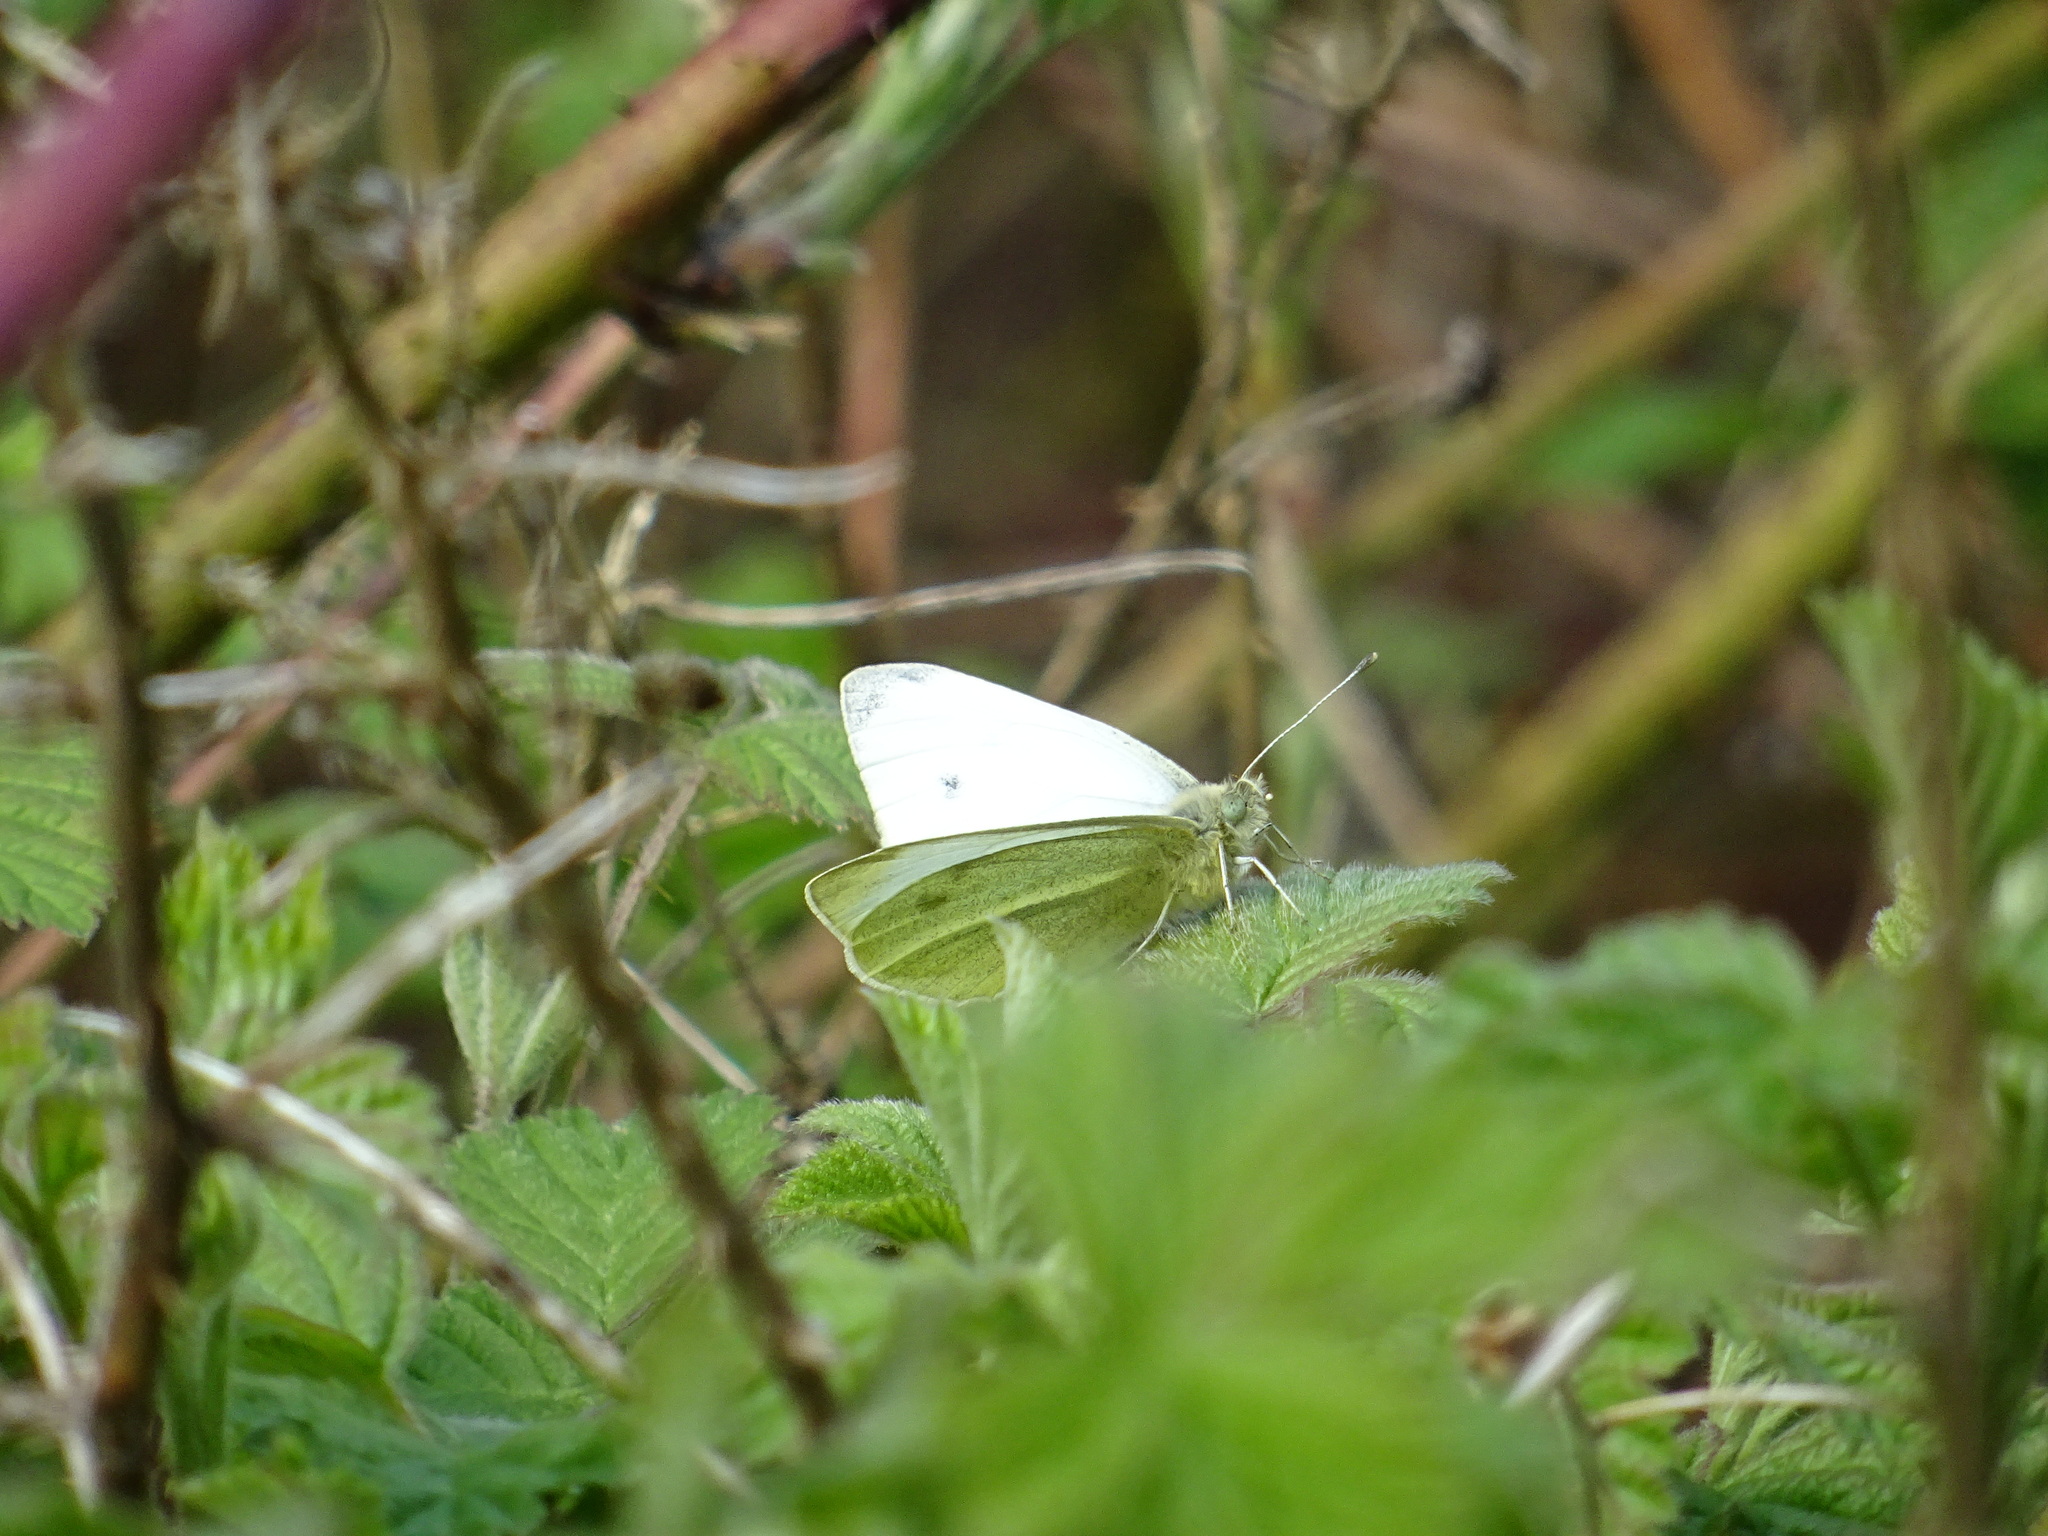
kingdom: Animalia
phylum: Arthropoda
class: Insecta
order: Lepidoptera
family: Pieridae
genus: Pieris
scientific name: Pieris rapae
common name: Small white
